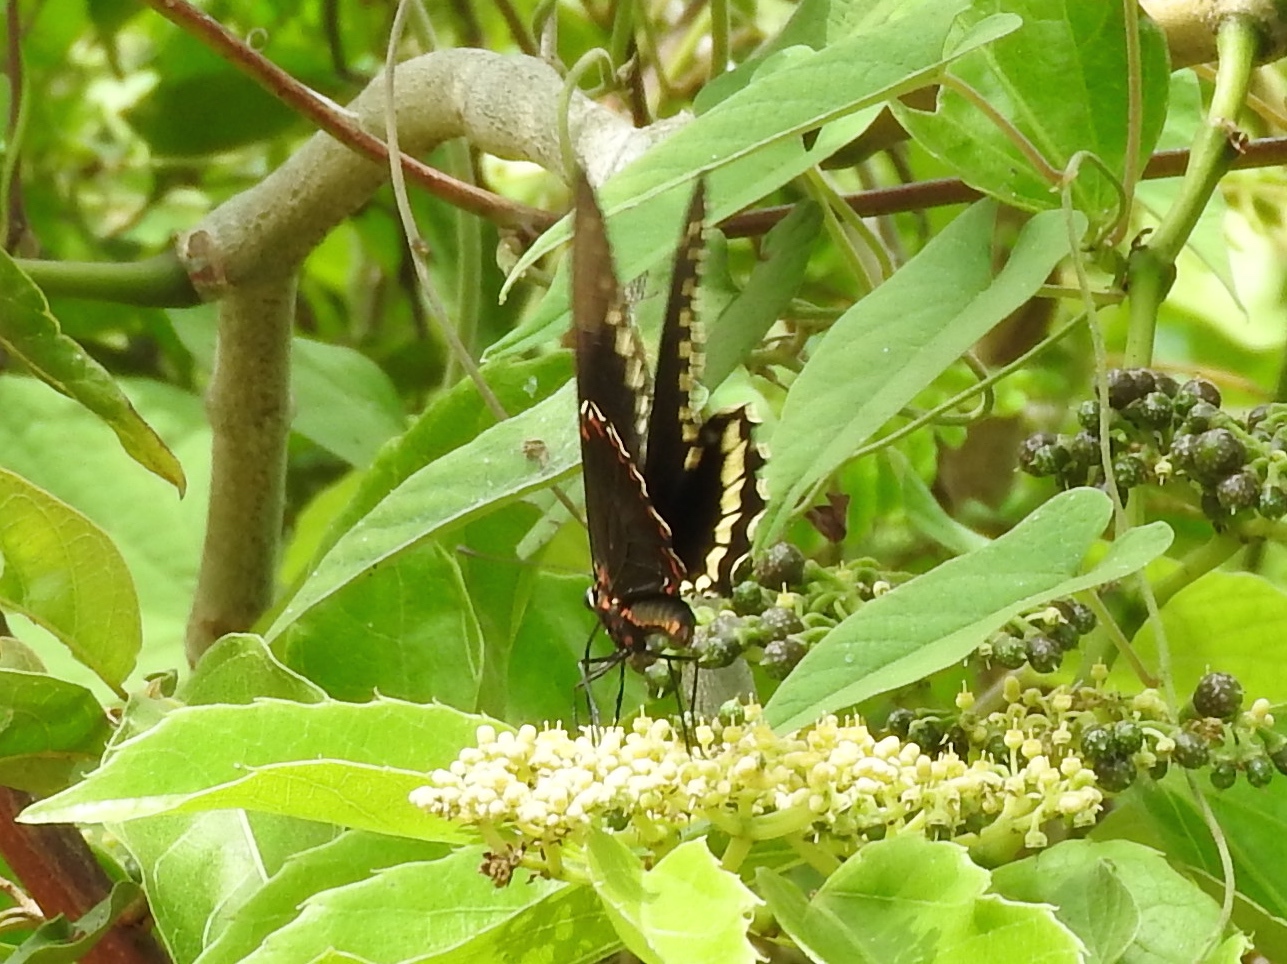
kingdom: Animalia
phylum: Arthropoda
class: Insecta
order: Lepidoptera
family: Papilionidae
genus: Battus
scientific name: Battus polydamas
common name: Polydamas swallowtail
